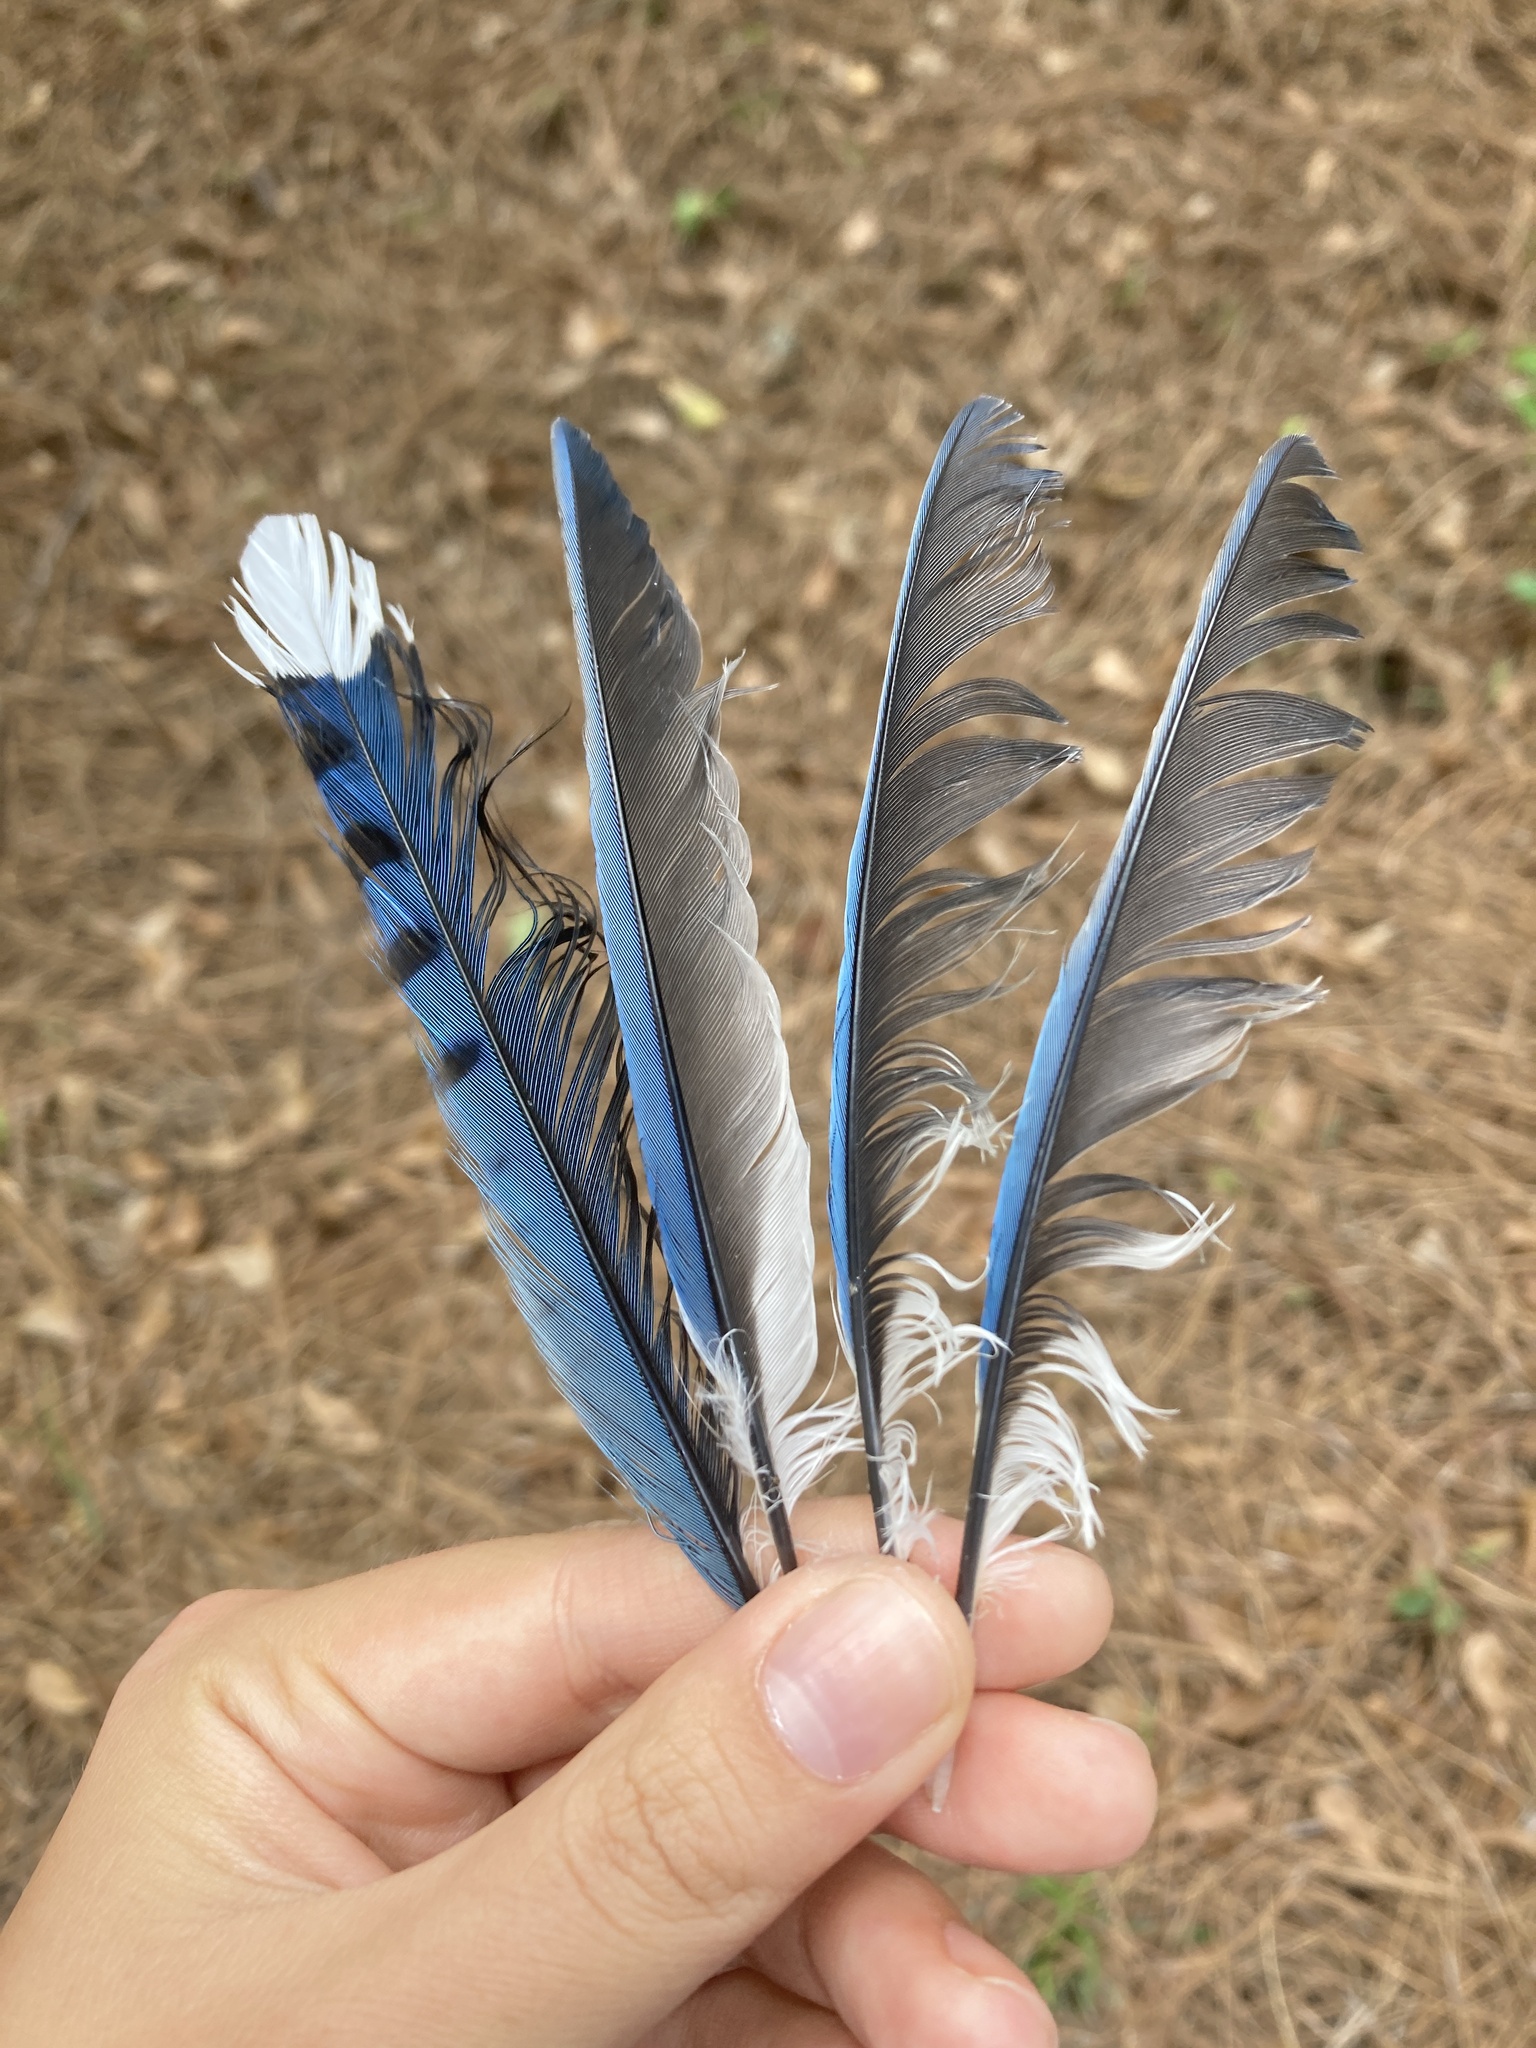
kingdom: Animalia
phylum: Chordata
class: Aves
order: Passeriformes
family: Corvidae
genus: Cyanocitta
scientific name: Cyanocitta cristata
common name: Blue jay
